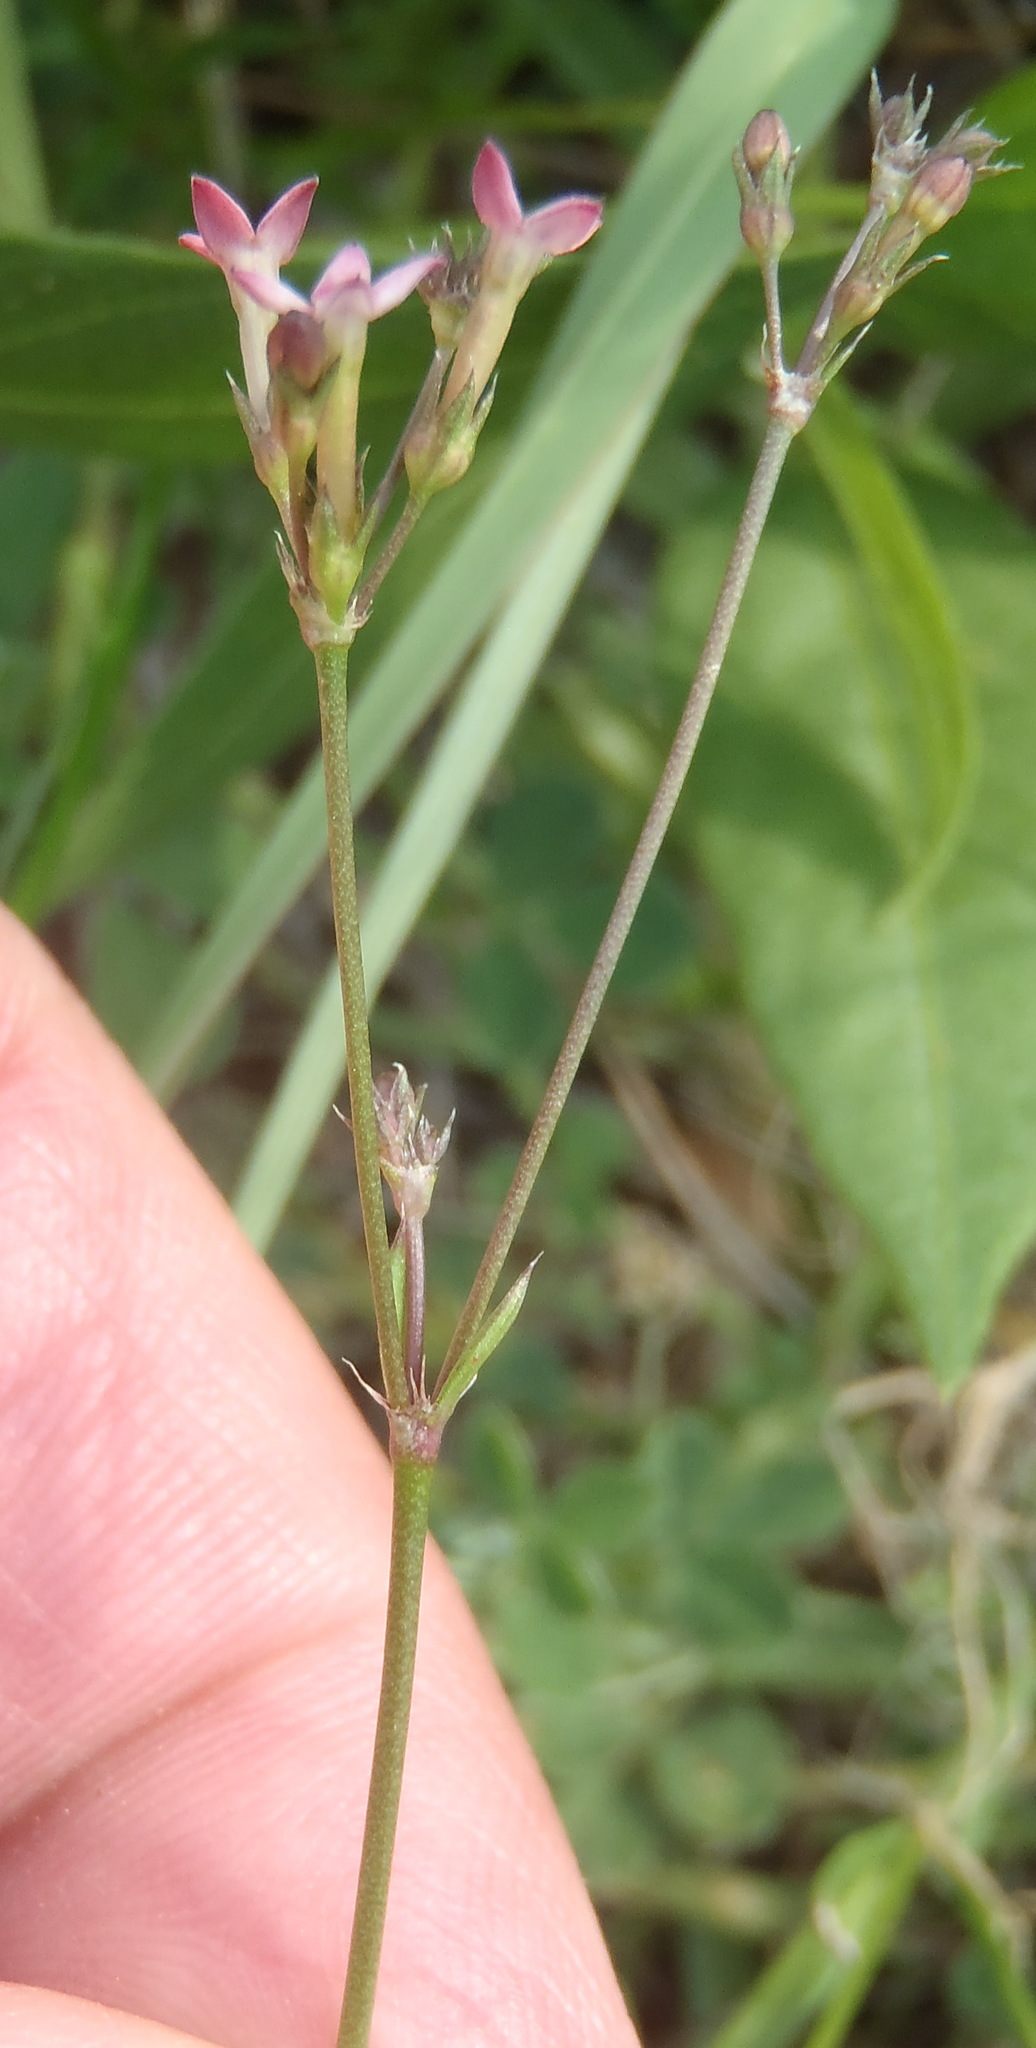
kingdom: Plantae
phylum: Tracheophyta
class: Magnoliopsida
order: Gentianales
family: Rubiaceae
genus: Cordylostigma
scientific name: Cordylostigma virgatum
